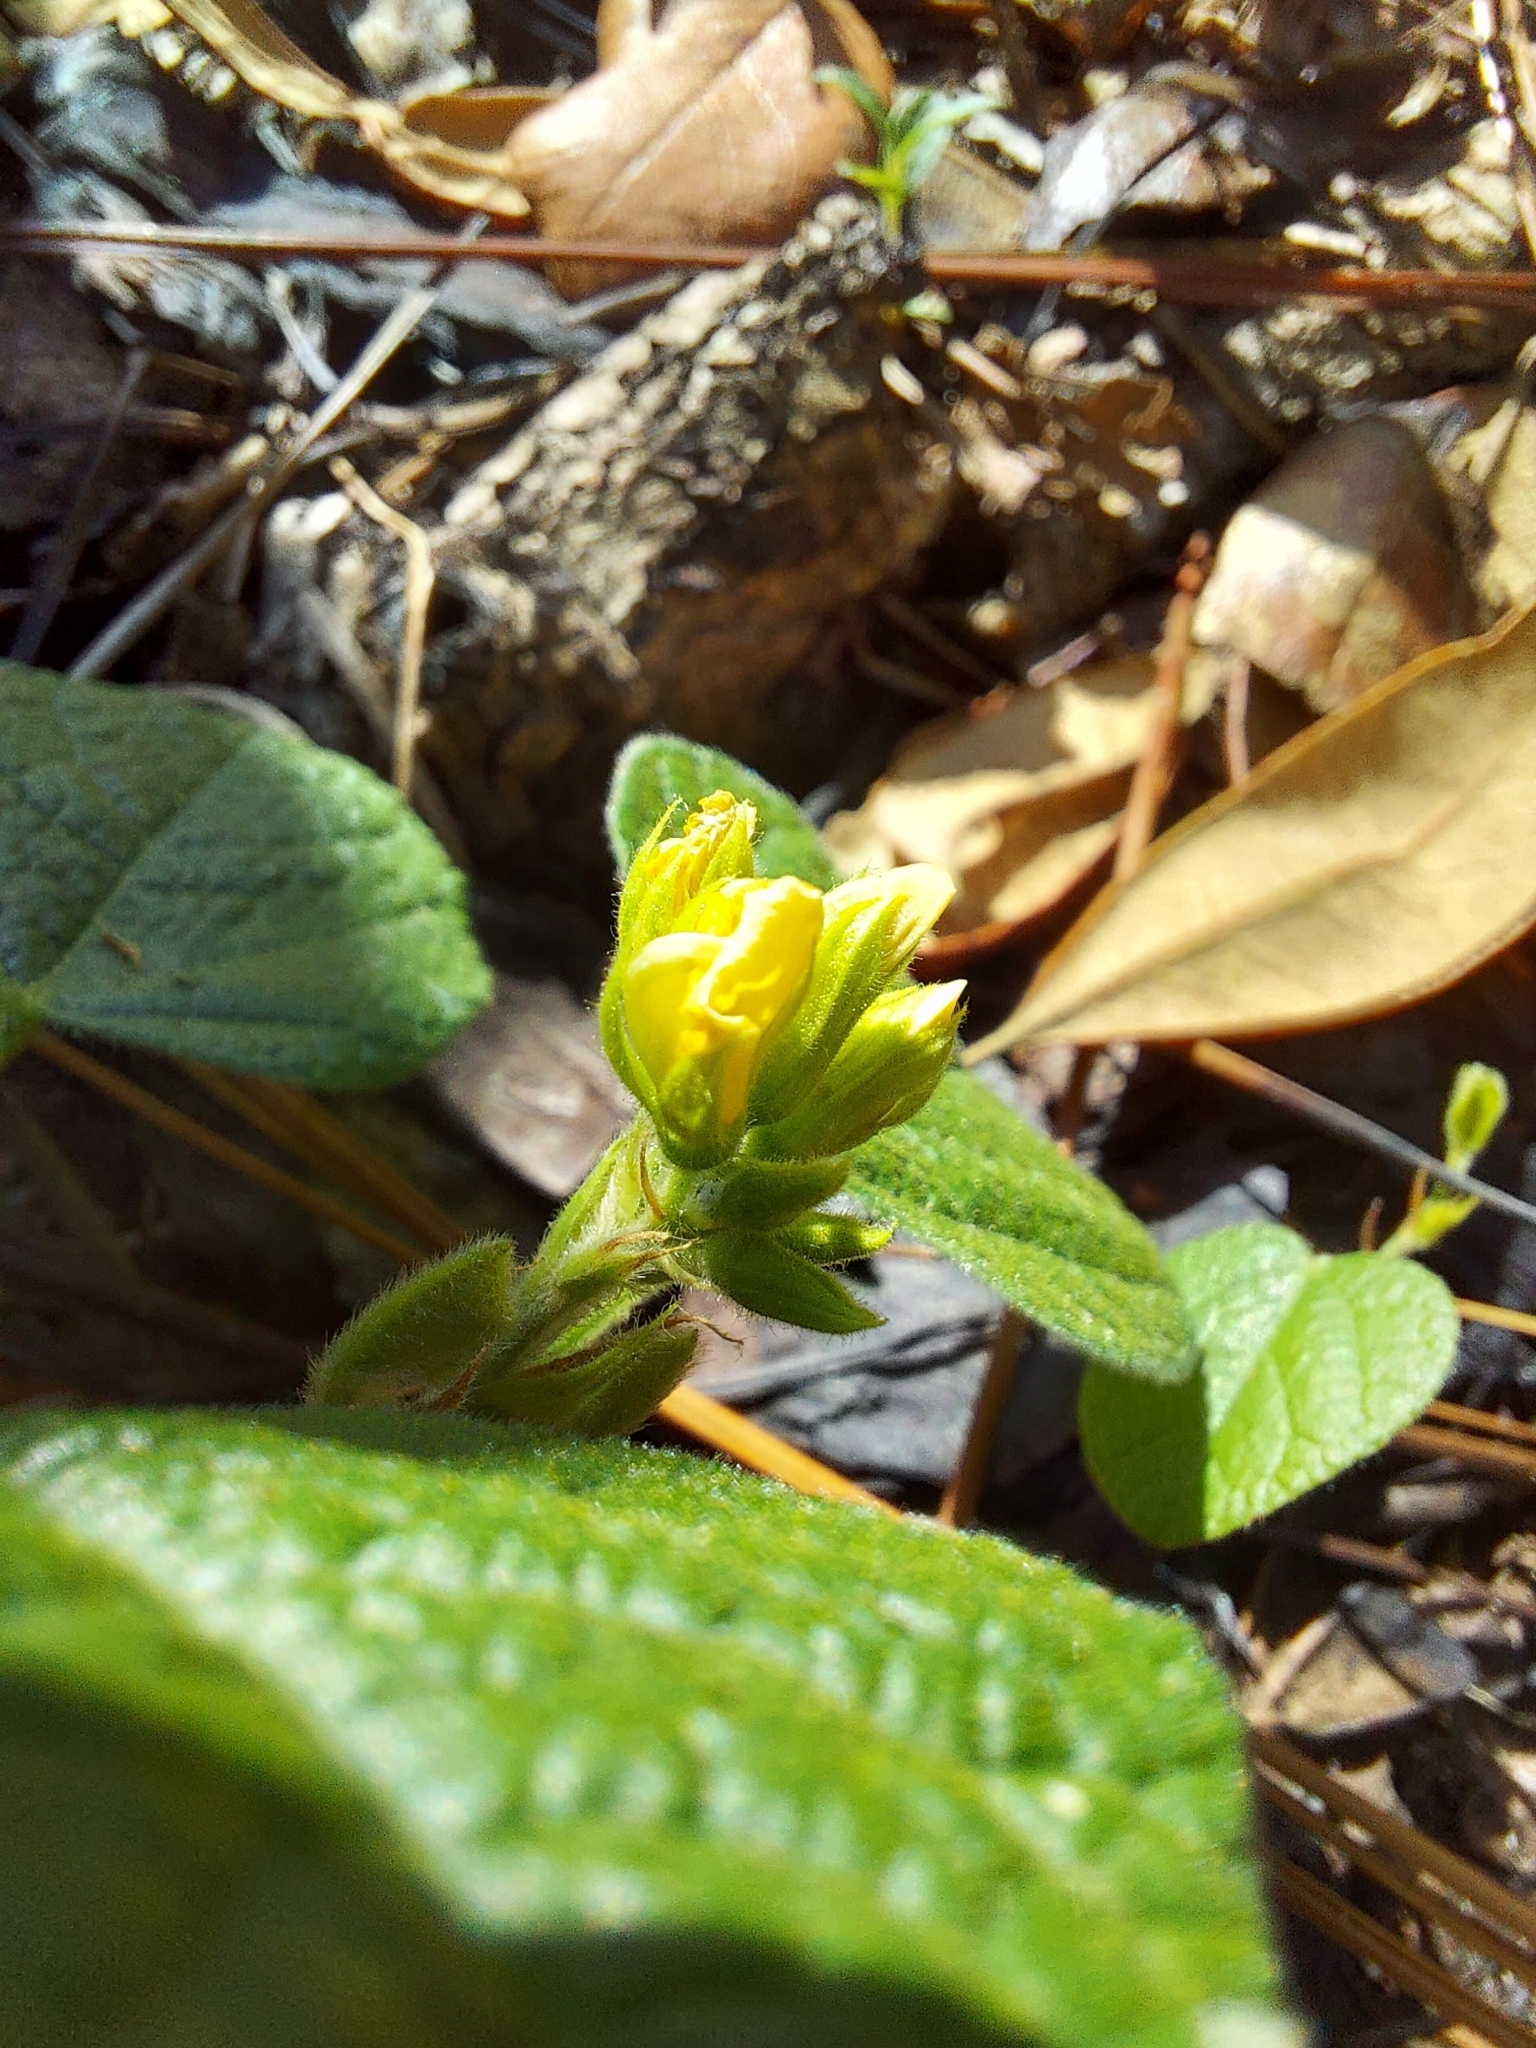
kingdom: Plantae
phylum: Tracheophyta
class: Magnoliopsida
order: Fabales
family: Fabaceae
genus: Rhynchosia
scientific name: Rhynchosia reniformis
